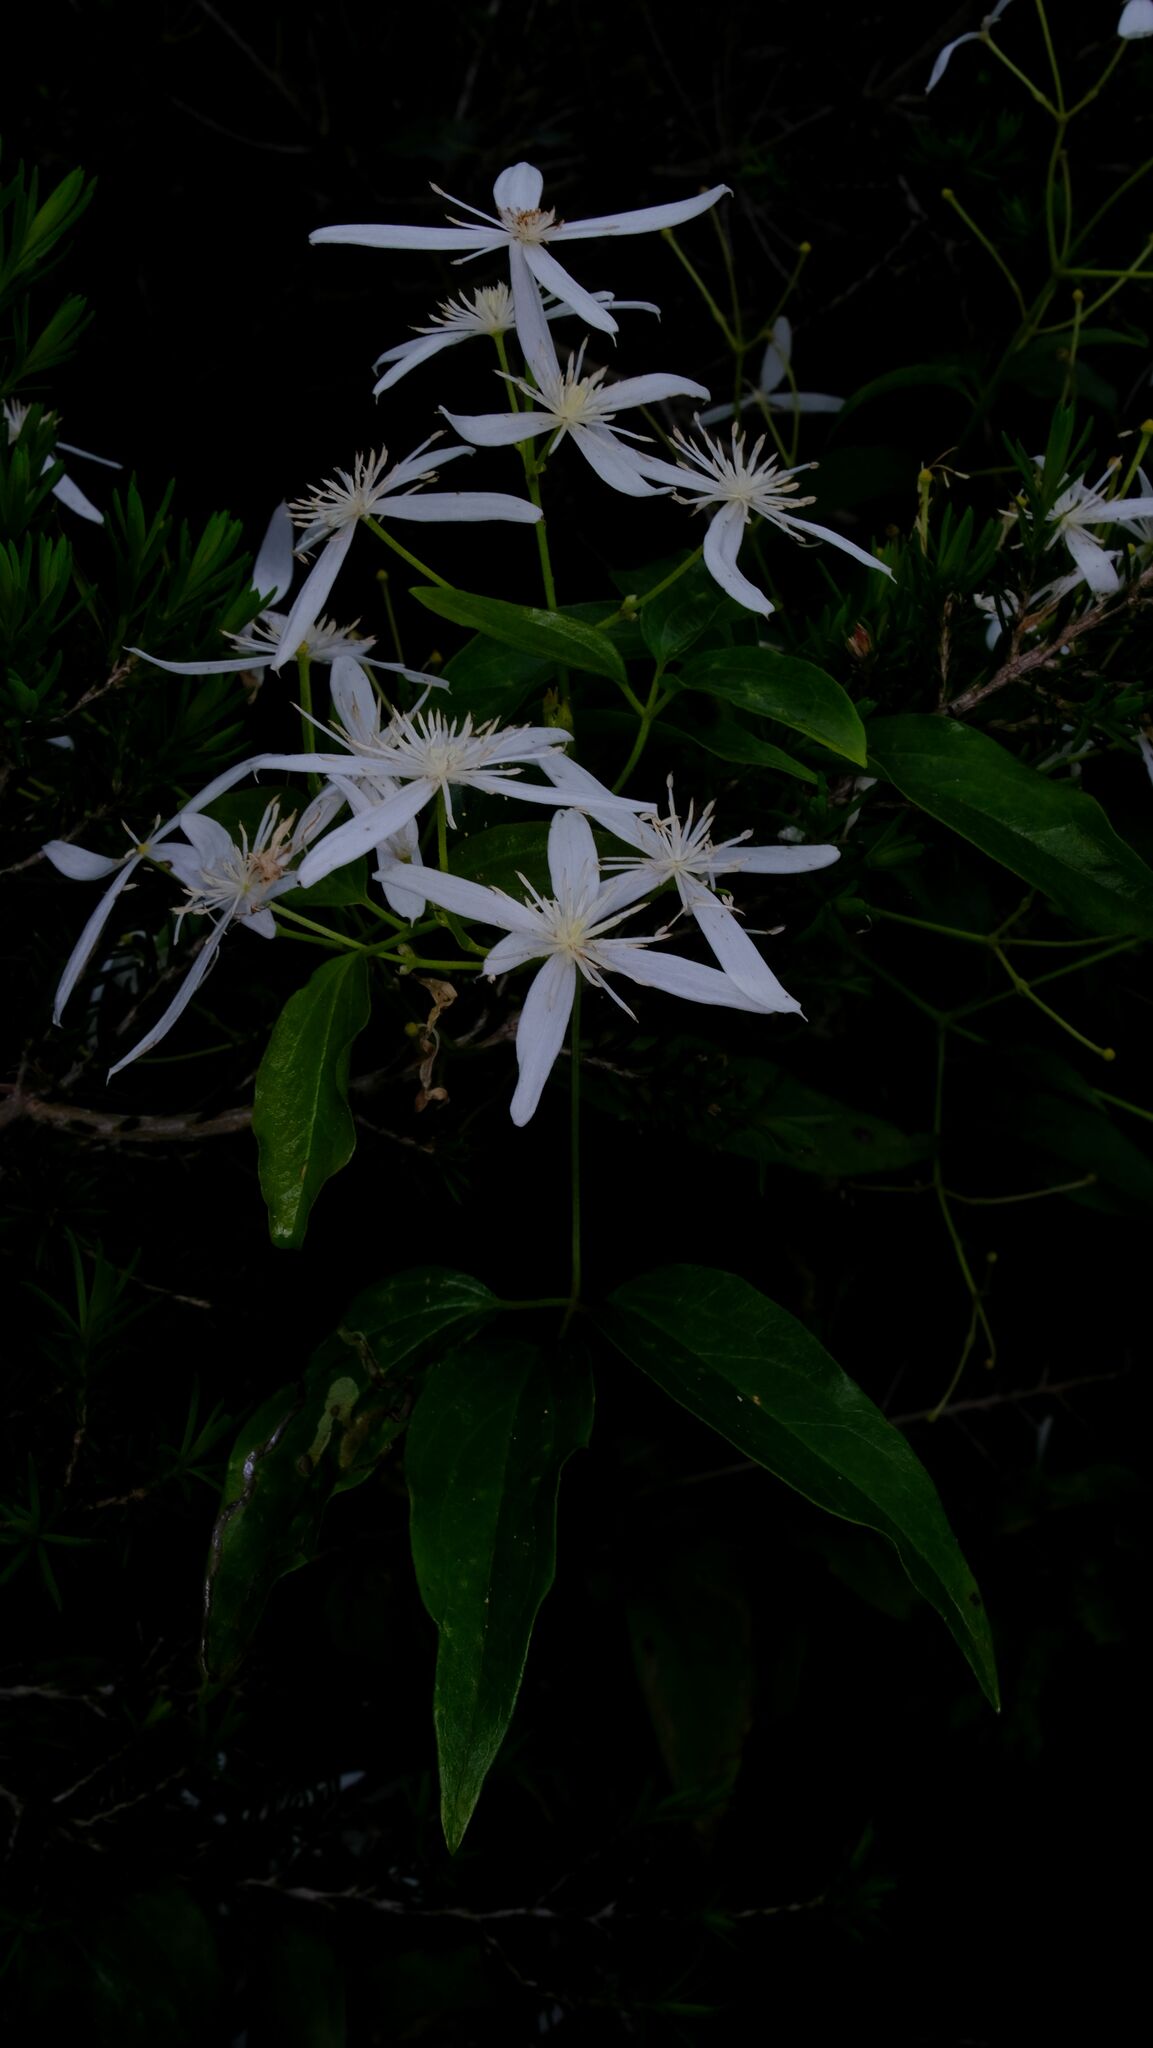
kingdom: Plantae
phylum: Tracheophyta
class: Magnoliopsida
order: Ranunculales
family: Ranunculaceae
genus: Clematis
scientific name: Clematis glycinoides
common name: Forest clematis
